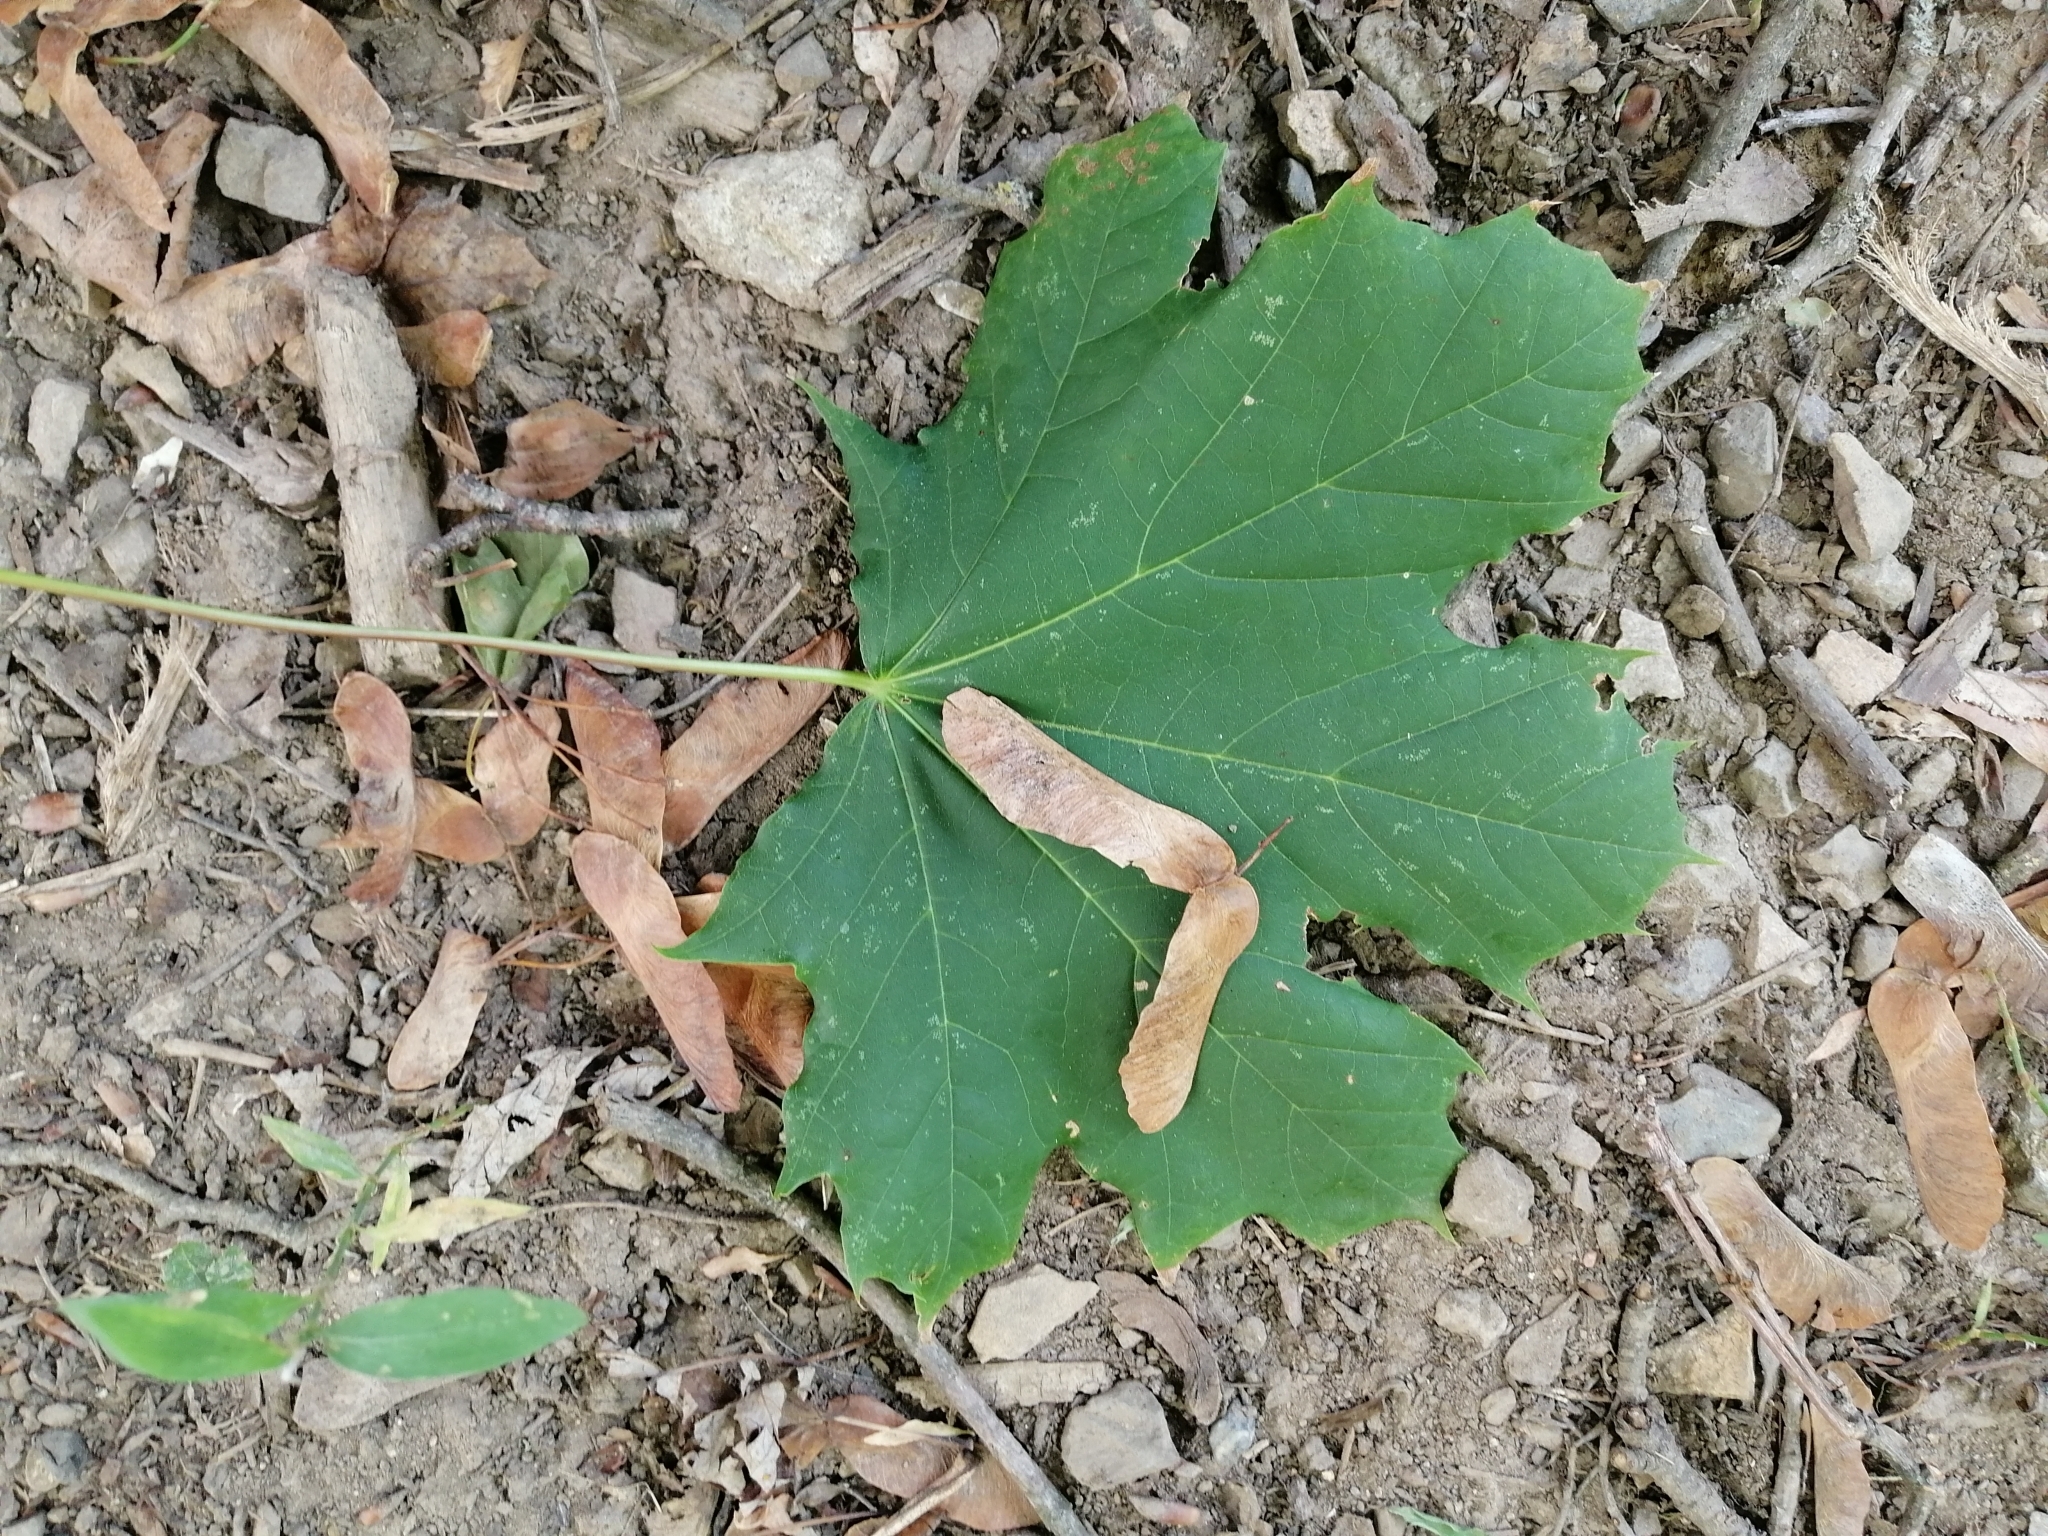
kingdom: Plantae
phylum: Tracheophyta
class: Magnoliopsida
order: Sapindales
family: Sapindaceae
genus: Acer
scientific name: Acer platanoides
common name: Norway maple
